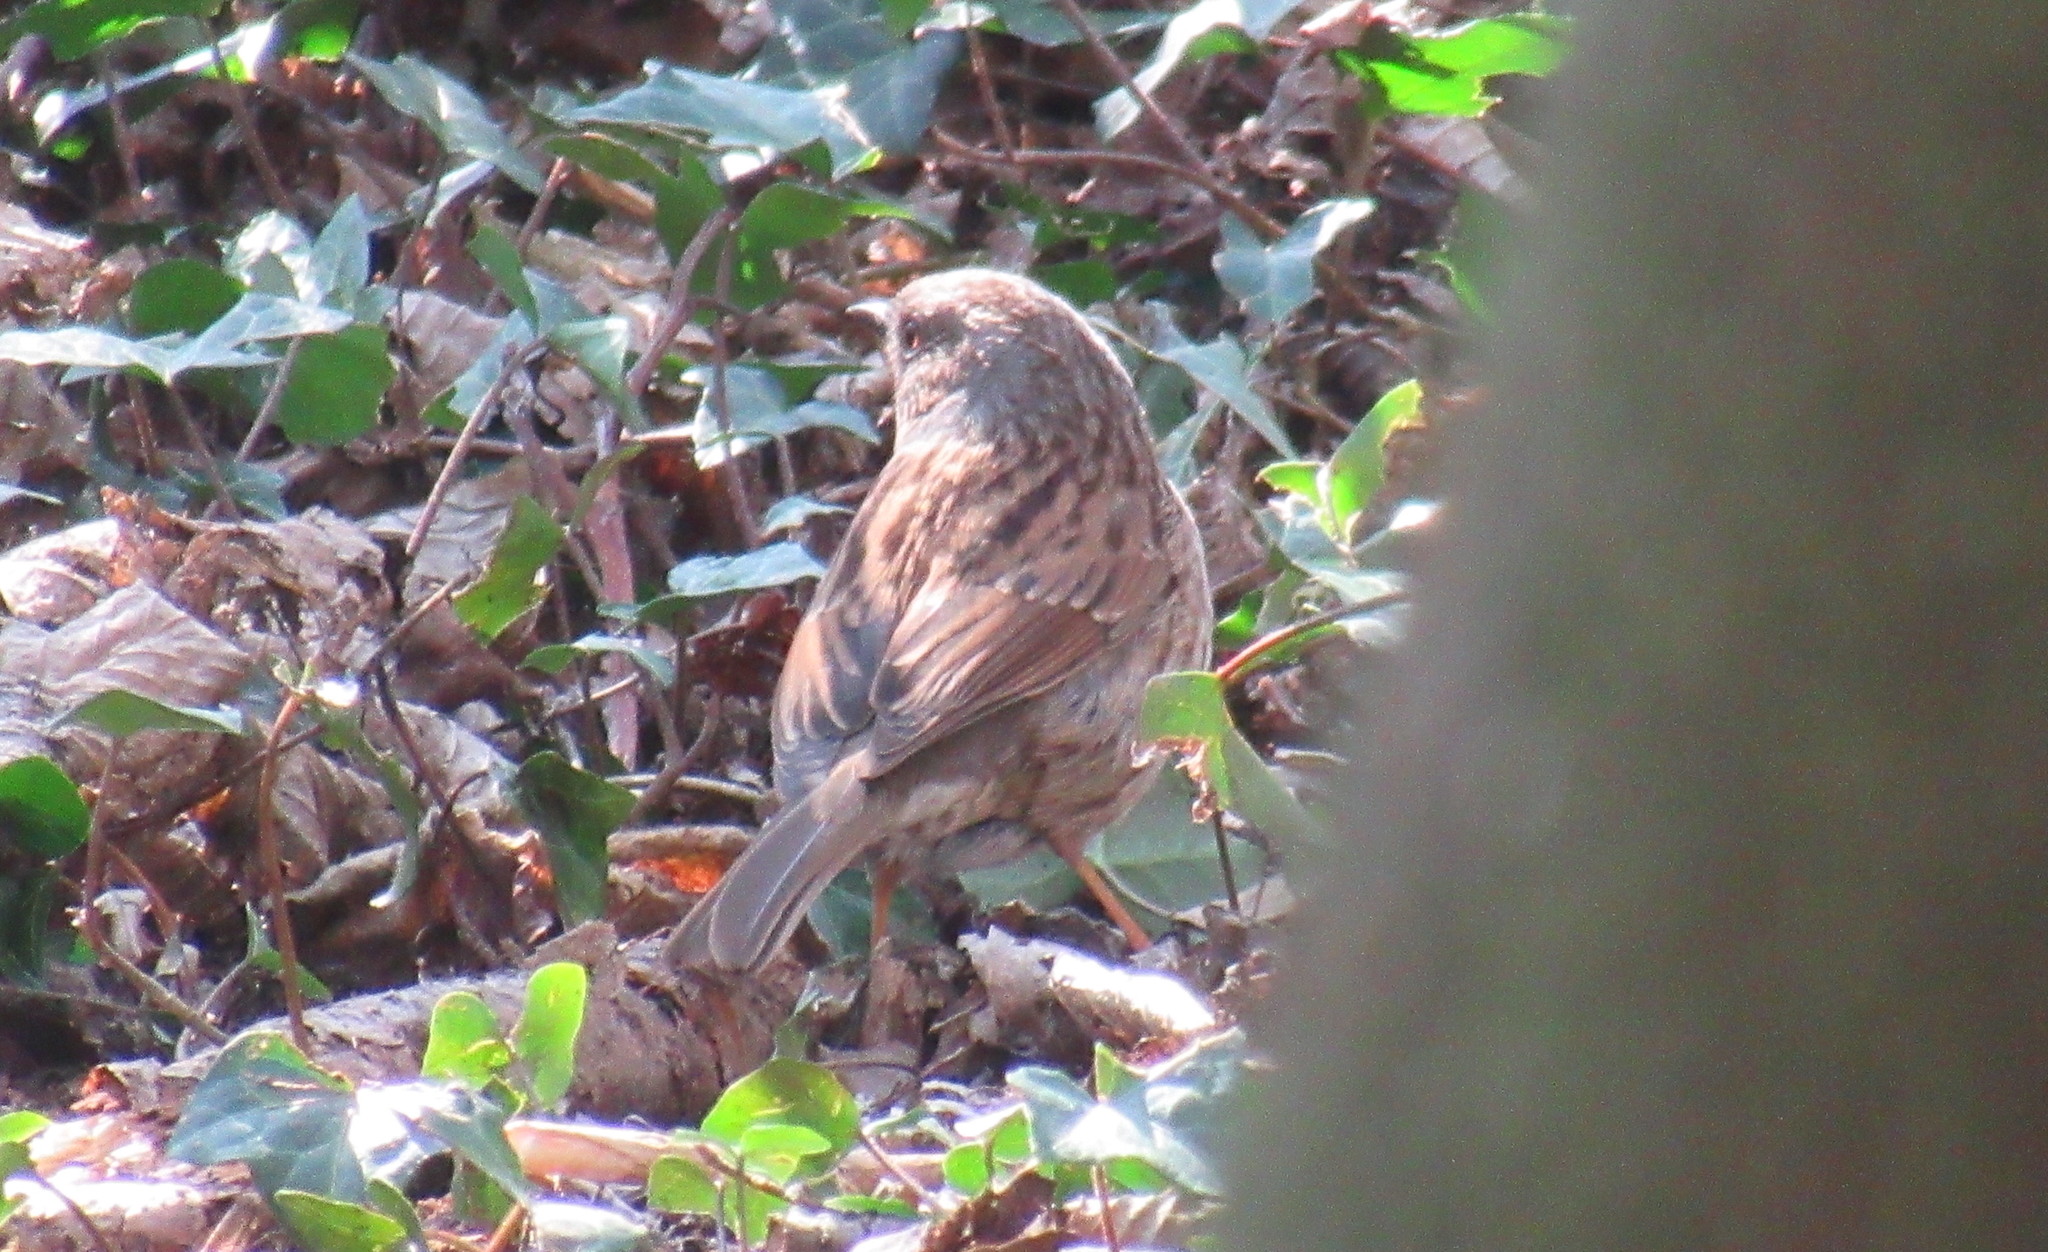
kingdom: Animalia
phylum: Chordata
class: Aves
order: Passeriformes
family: Prunellidae
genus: Prunella
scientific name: Prunella modularis
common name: Dunnock
